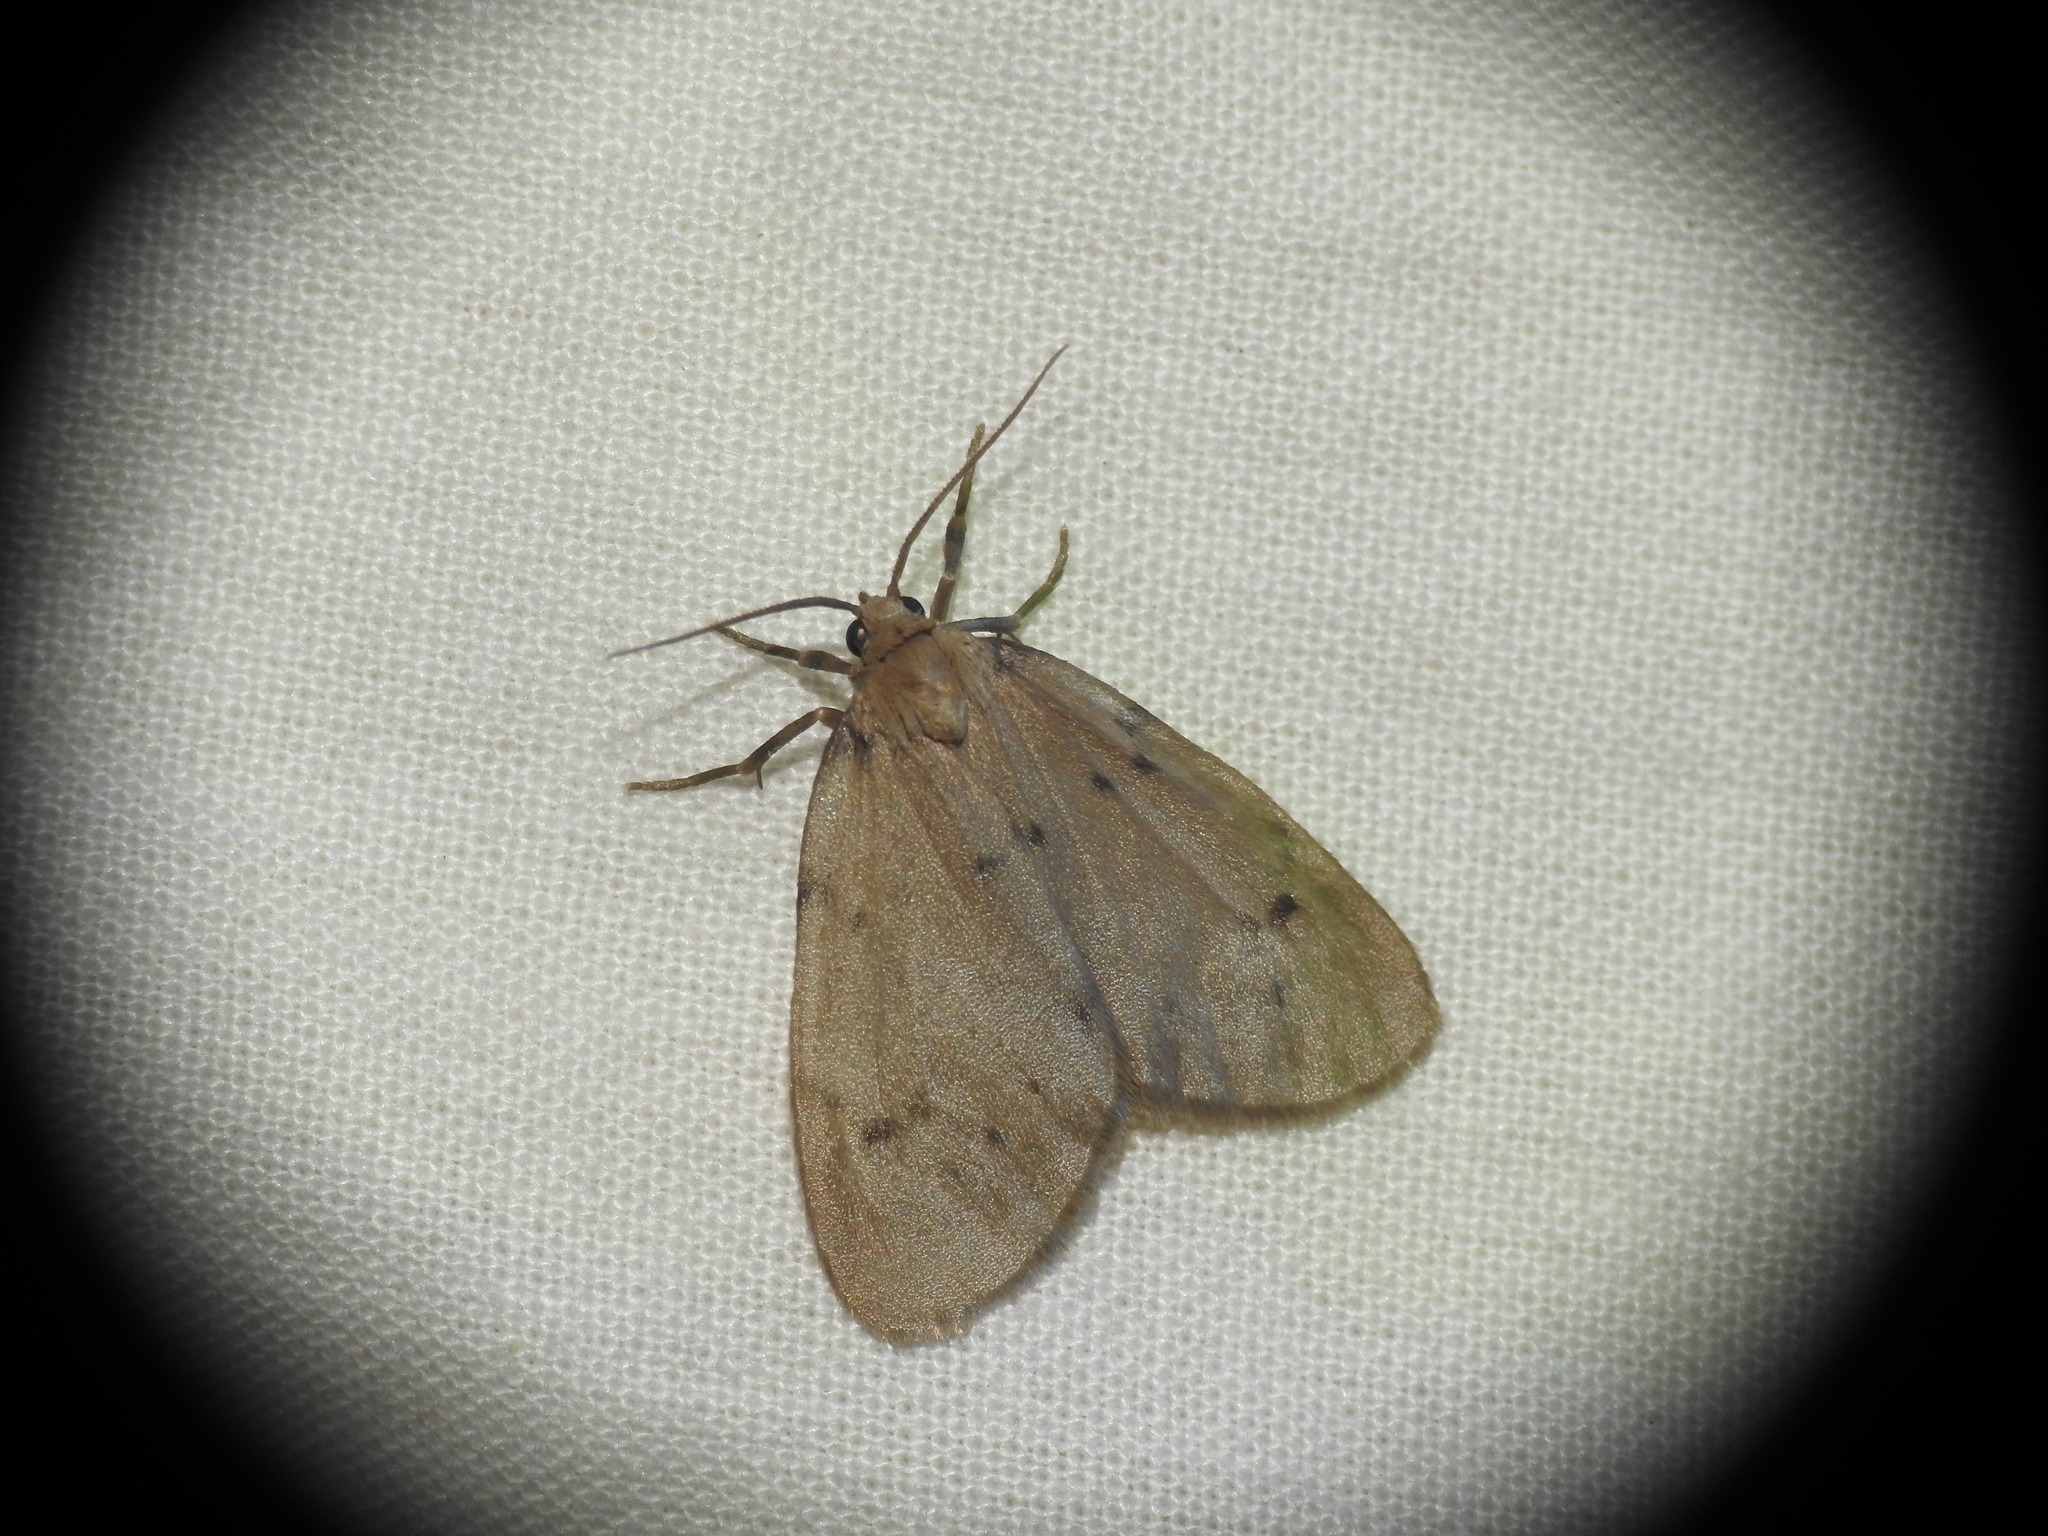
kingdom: Animalia
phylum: Arthropoda
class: Insecta
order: Lepidoptera
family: Erebidae
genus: Paidia
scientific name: Paidia rica
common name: Glaucous muslin
